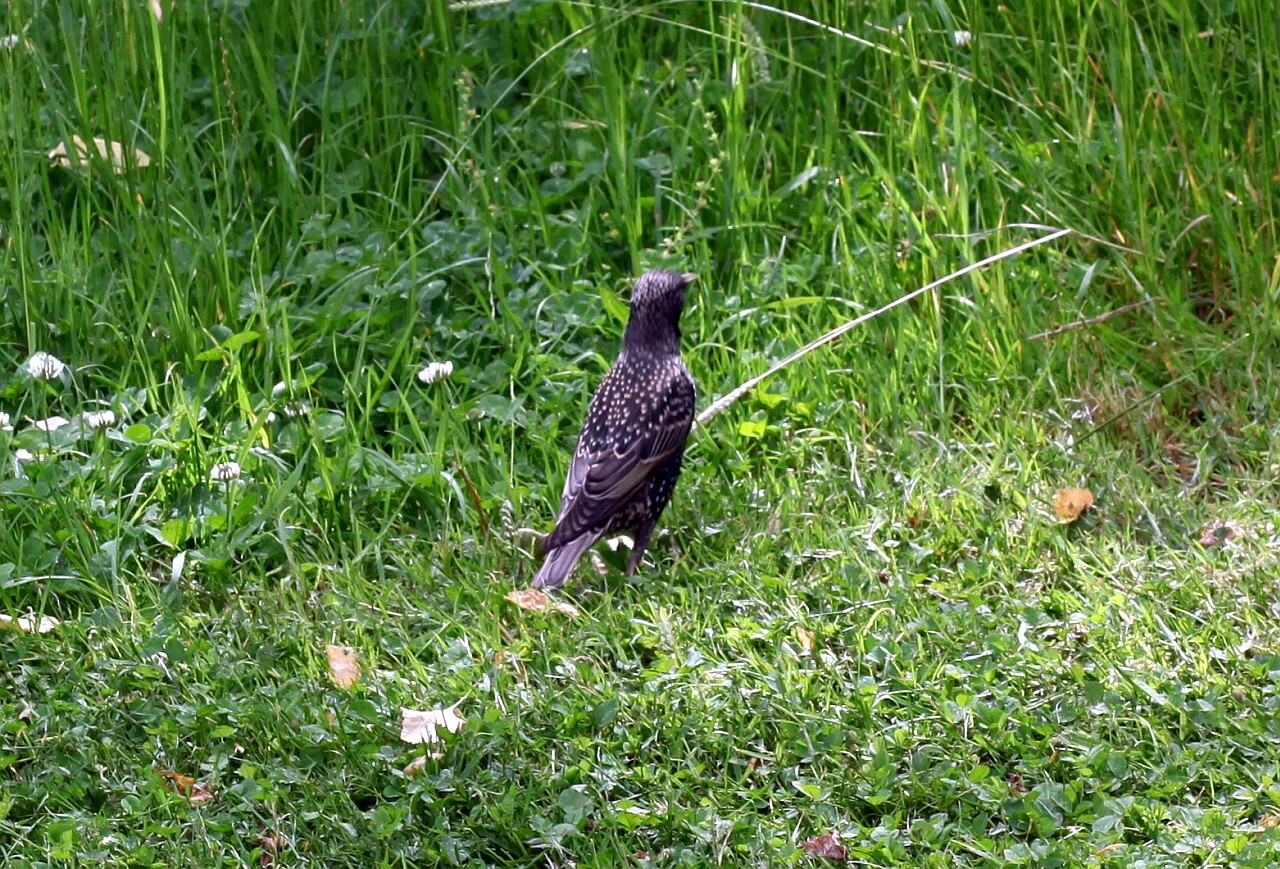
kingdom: Animalia
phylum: Chordata
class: Aves
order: Passeriformes
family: Sturnidae
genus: Sturnus
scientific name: Sturnus vulgaris
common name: Common starling
